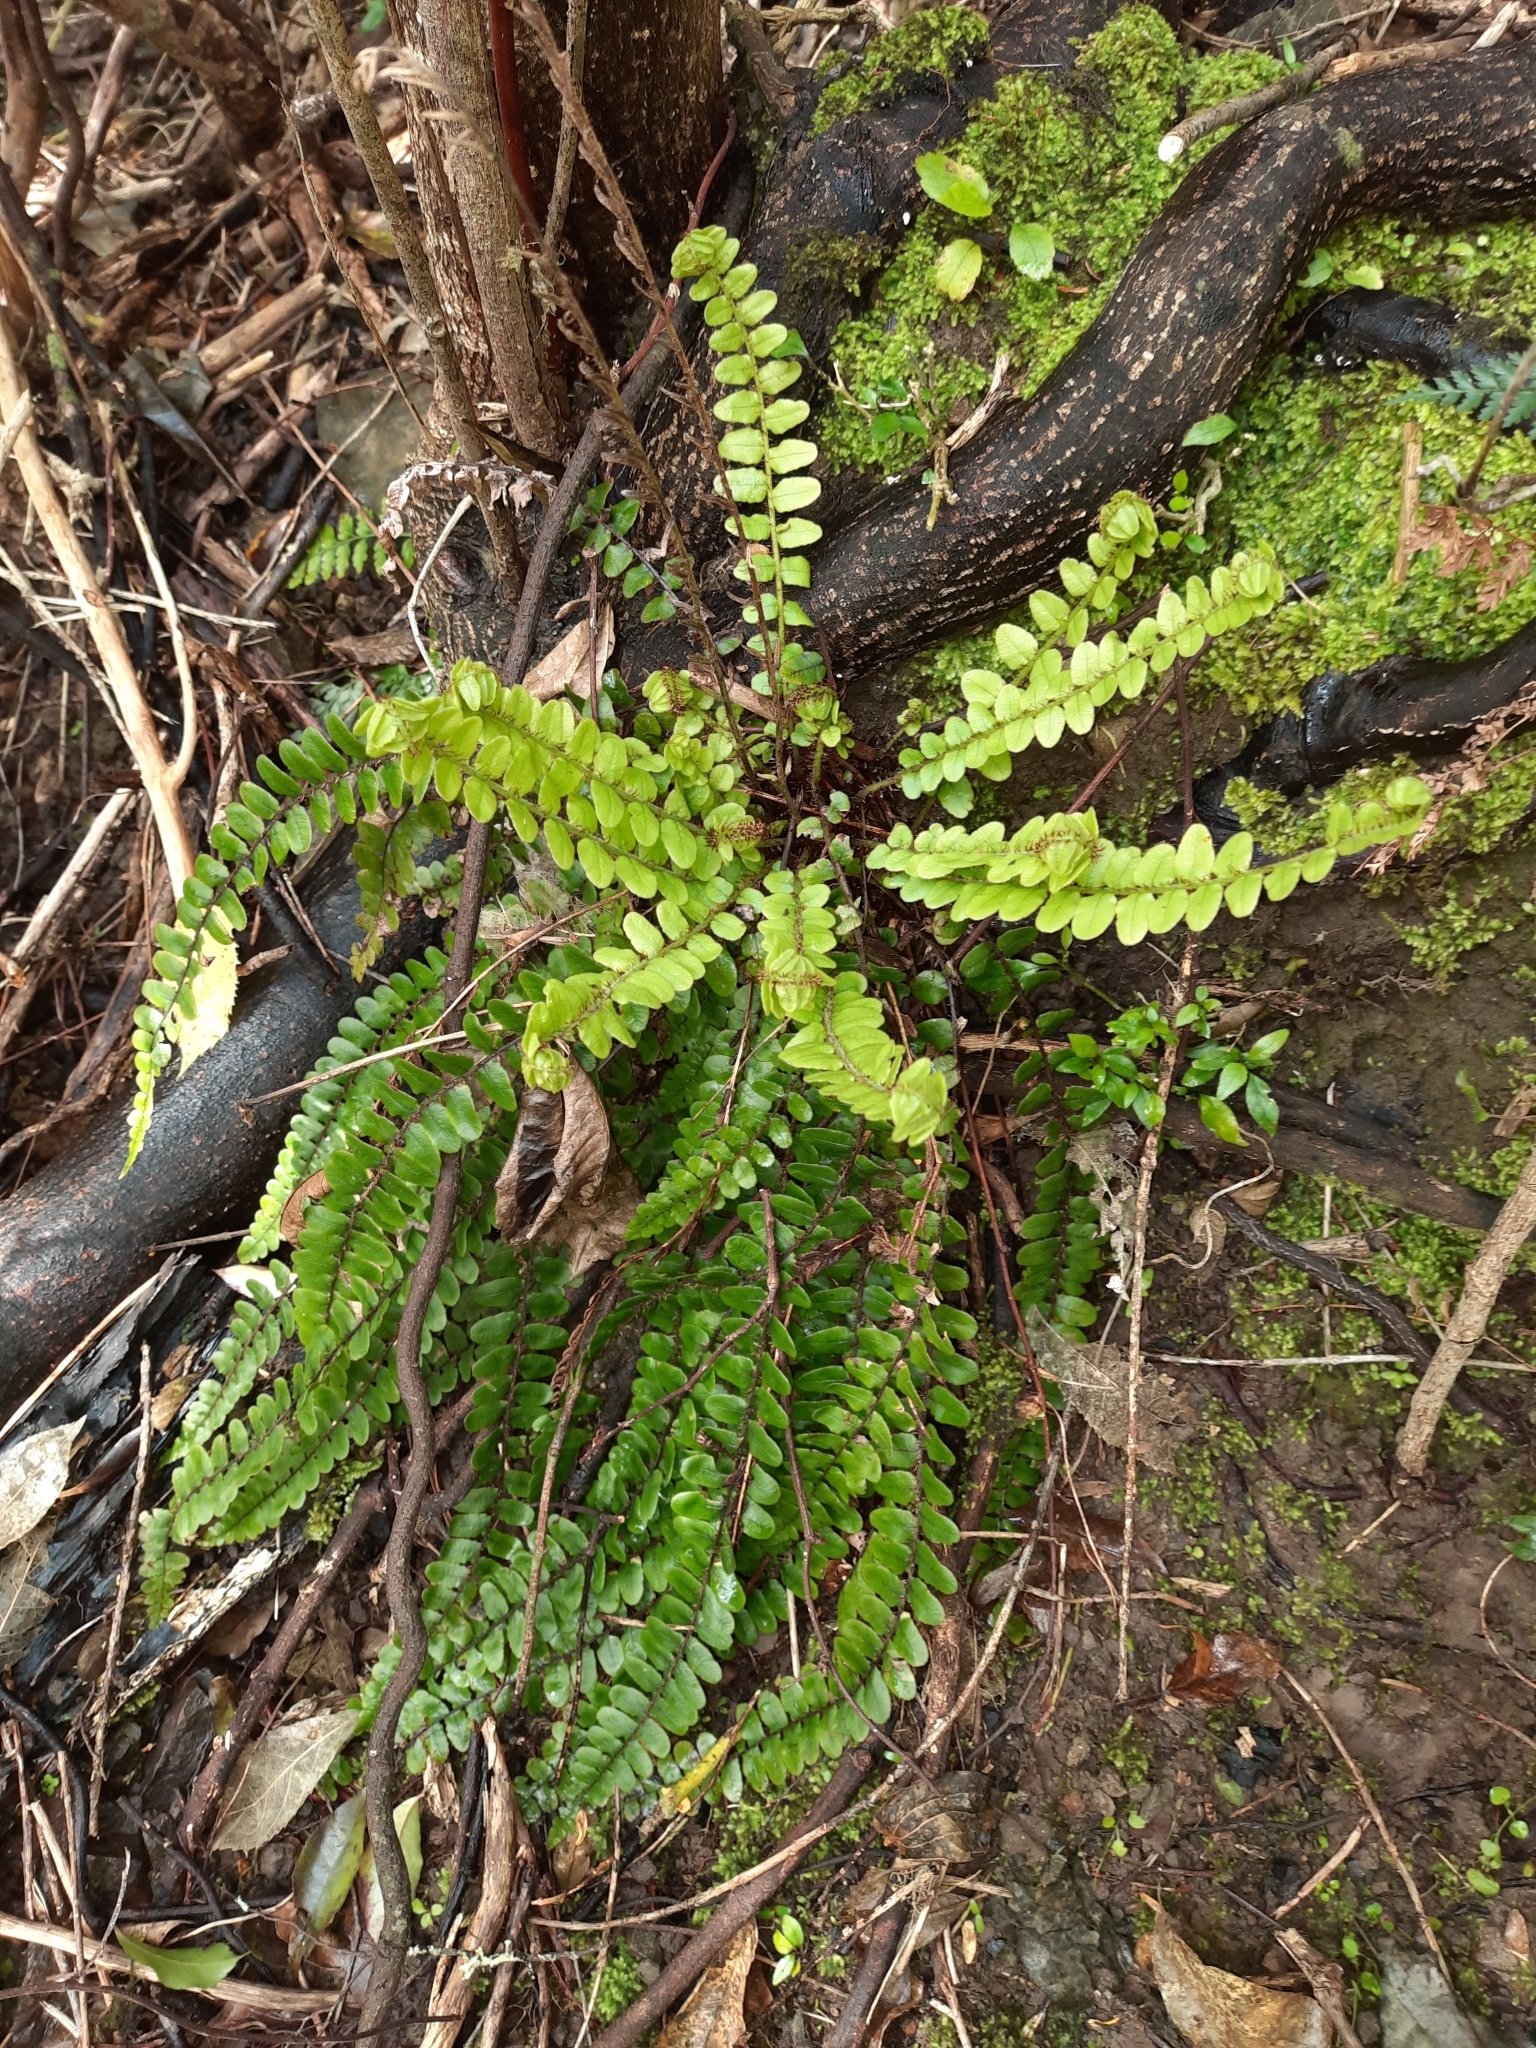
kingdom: Plantae
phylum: Tracheophyta
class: Polypodiopsida
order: Polypodiales
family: Blechnaceae
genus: Cranfillia
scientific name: Cranfillia fluviatilis
